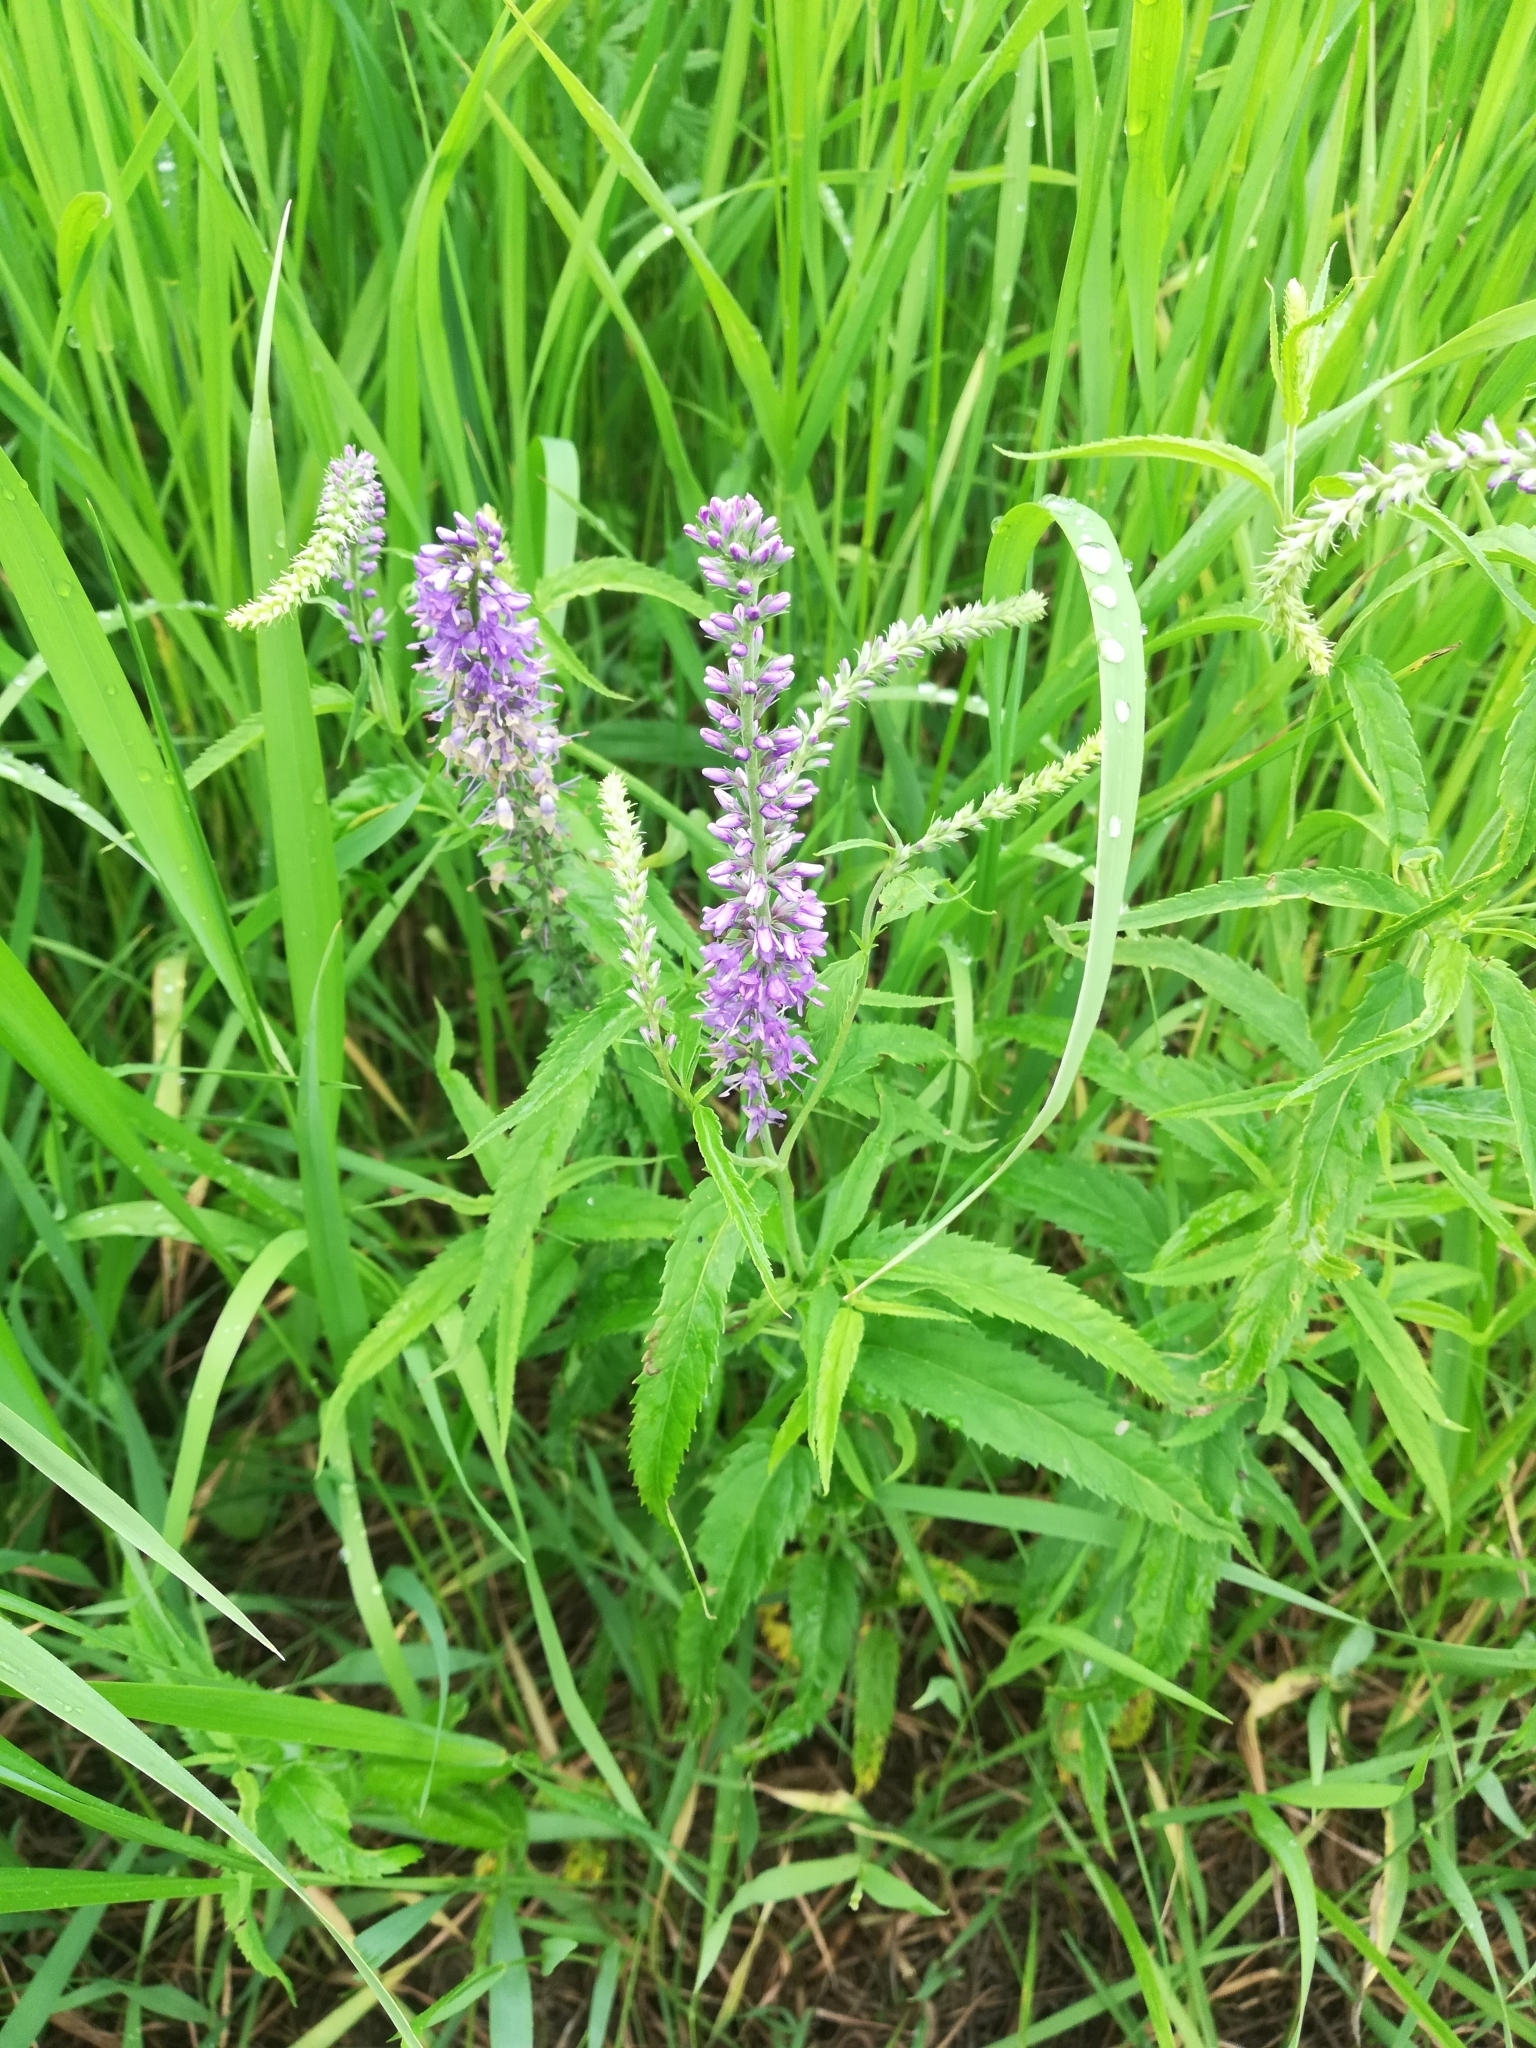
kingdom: Plantae
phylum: Tracheophyta
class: Magnoliopsida
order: Lamiales
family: Plantaginaceae
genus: Veronica
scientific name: Veronica longifolia
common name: Garden speedwell
